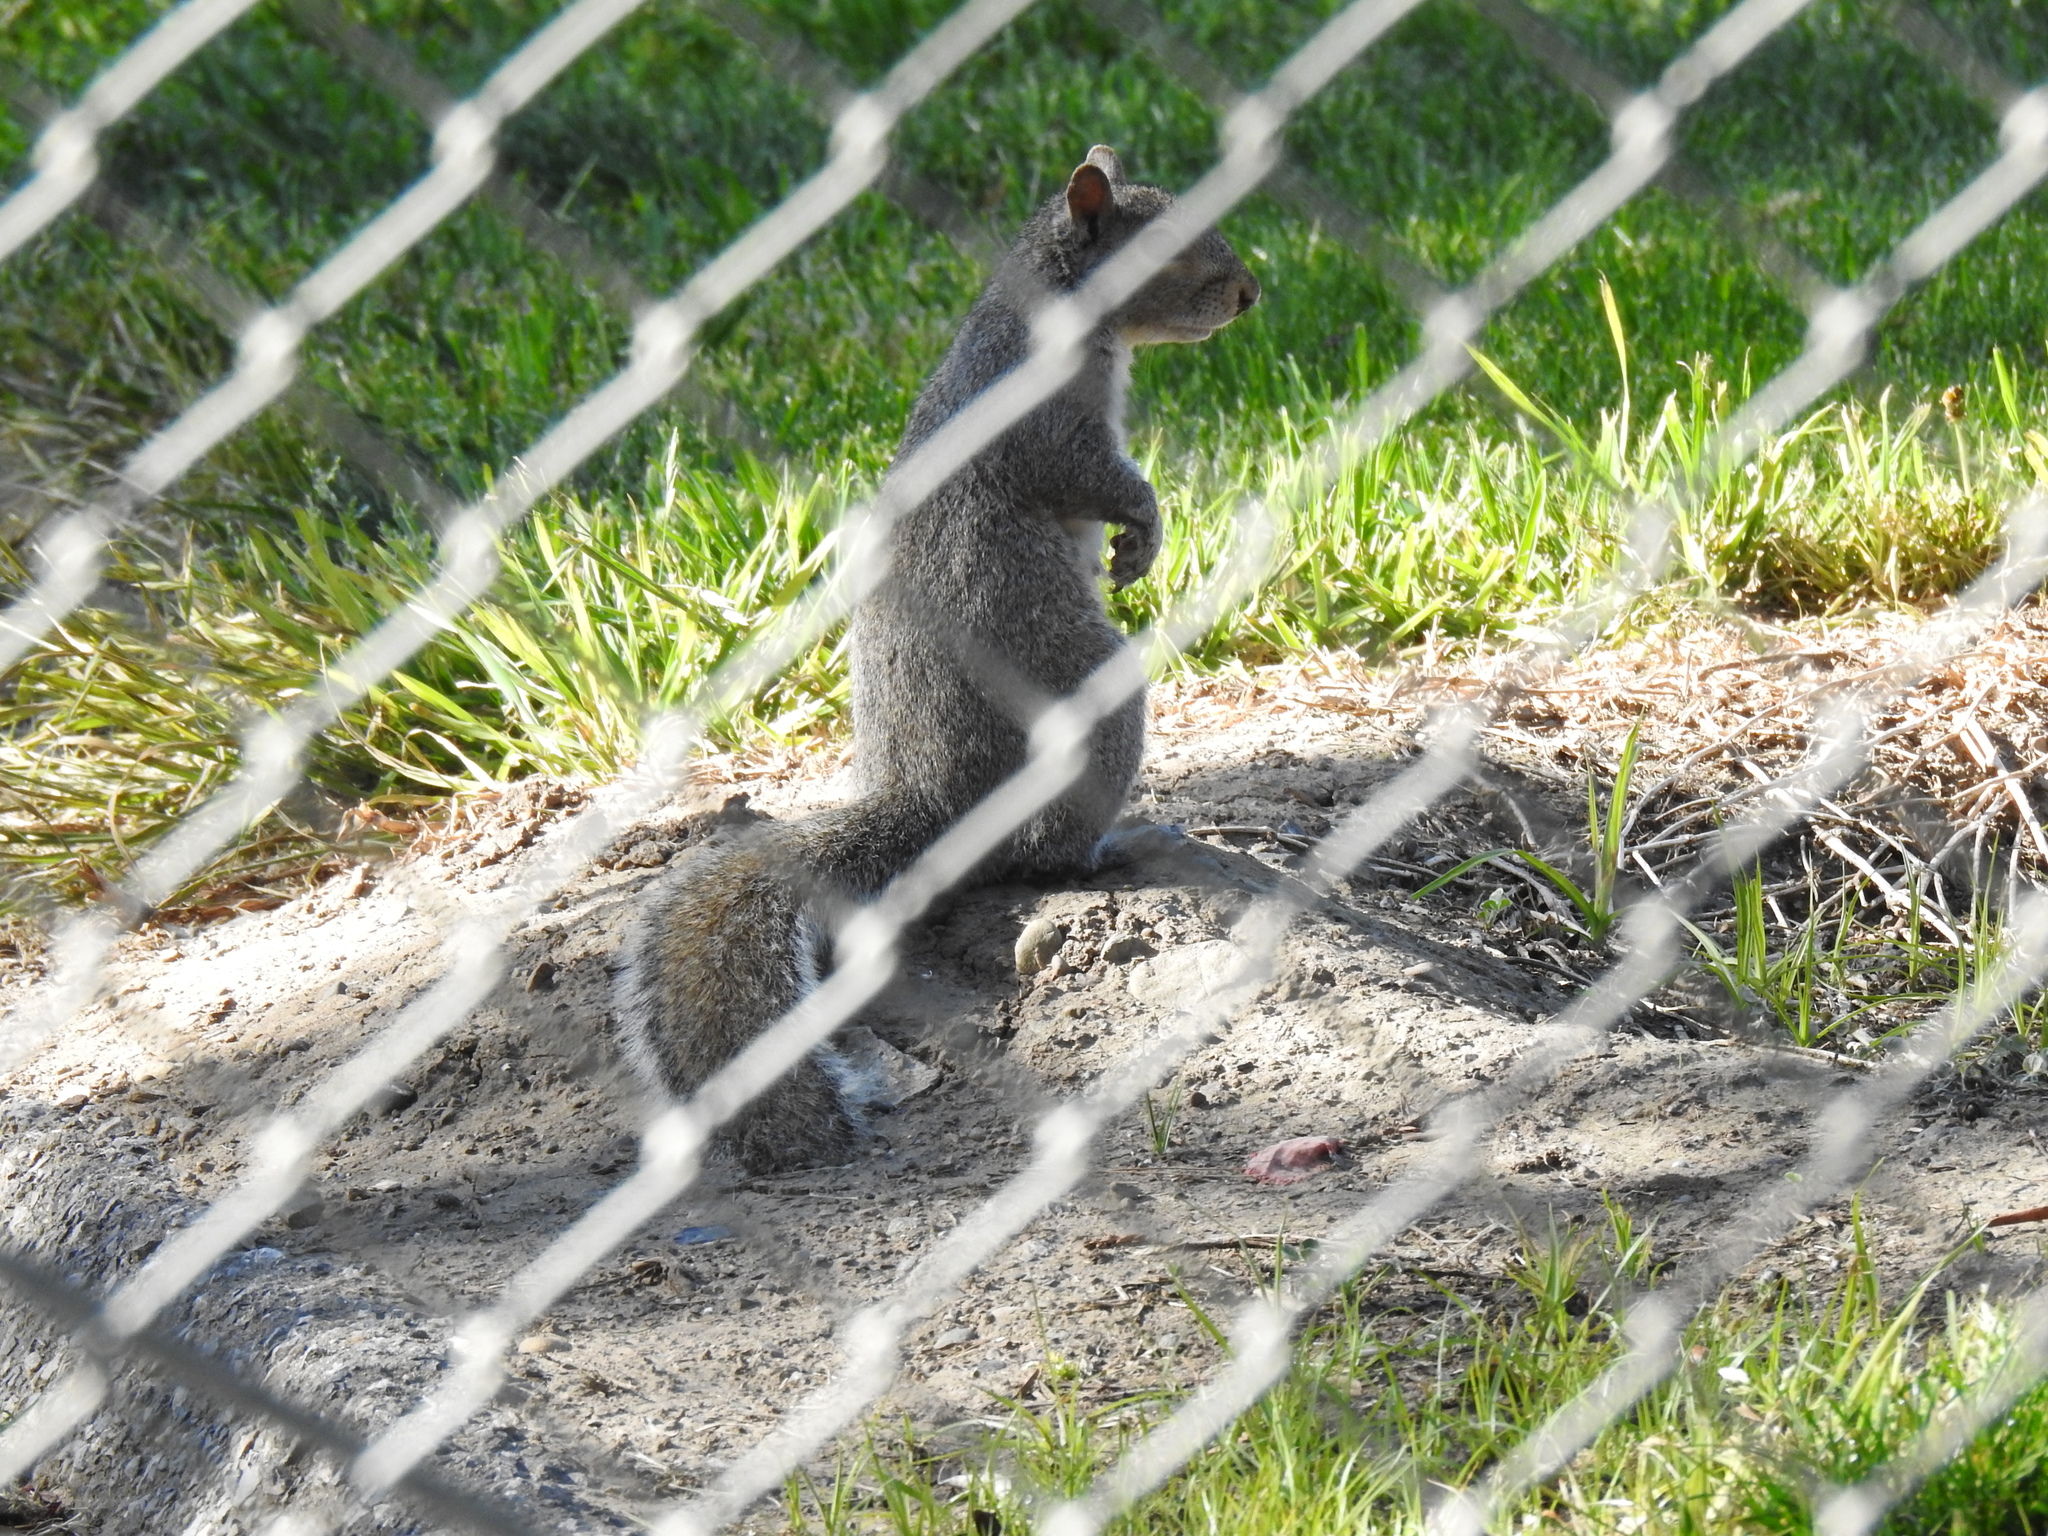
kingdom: Animalia
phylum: Chordata
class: Mammalia
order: Rodentia
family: Sciuridae
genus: Sciurus
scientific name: Sciurus carolinensis
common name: Eastern gray squirrel
